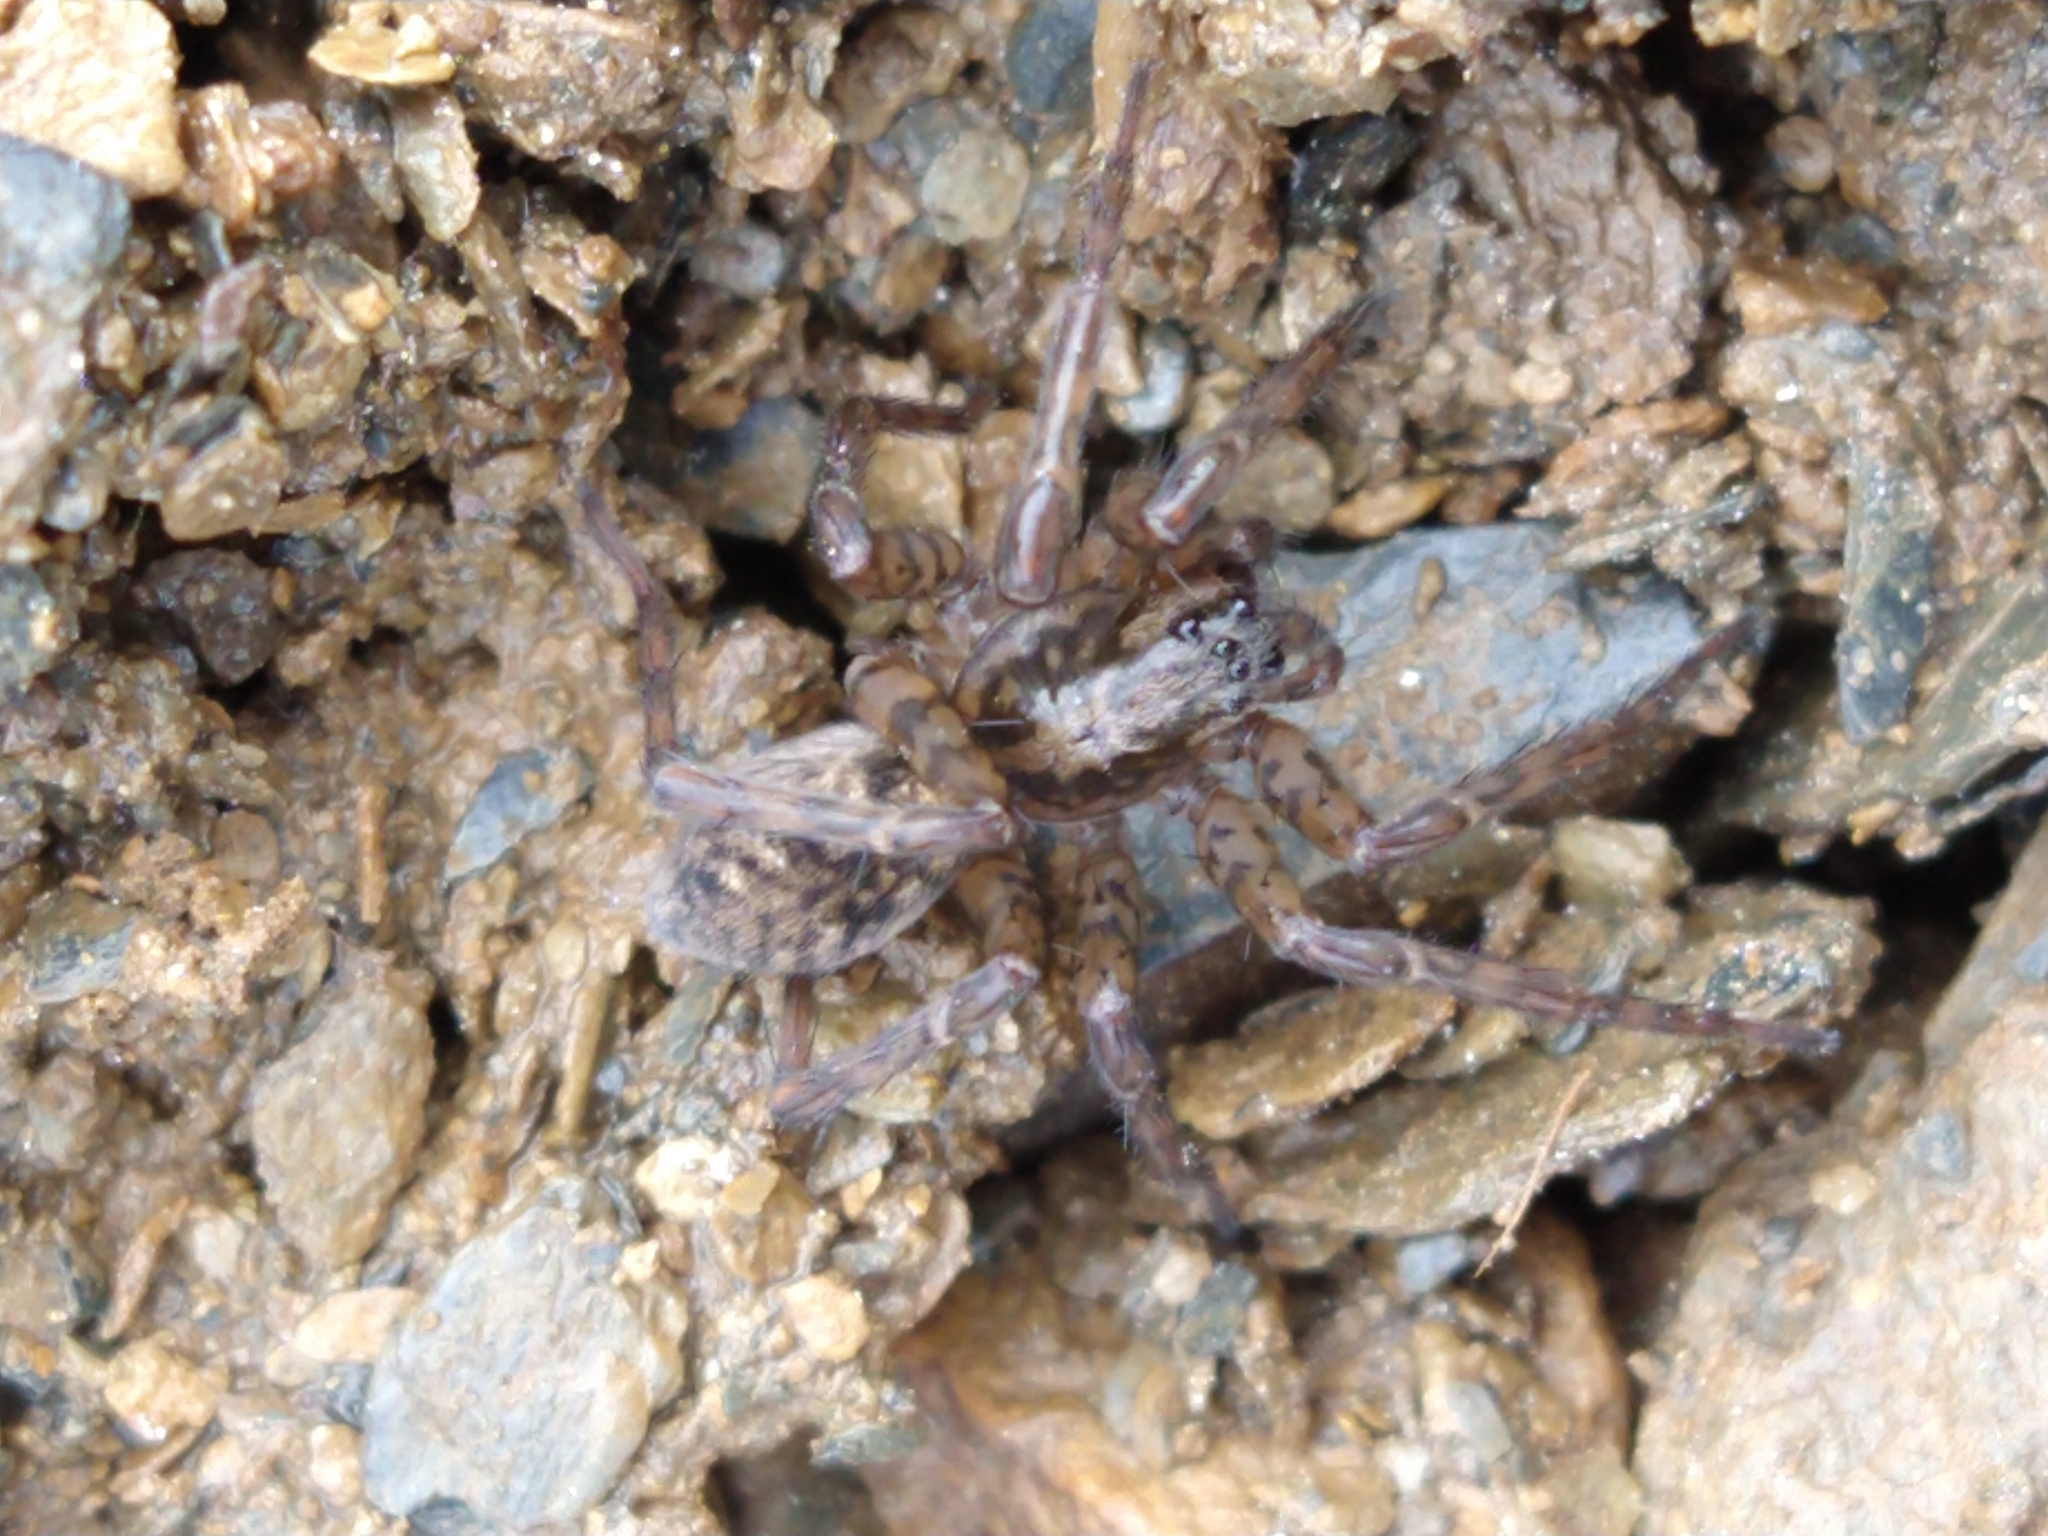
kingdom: Animalia
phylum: Arthropoda
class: Arachnida
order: Araneae
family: Amaurobiidae
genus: Emmenomma
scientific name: Emmenomma oculatum
